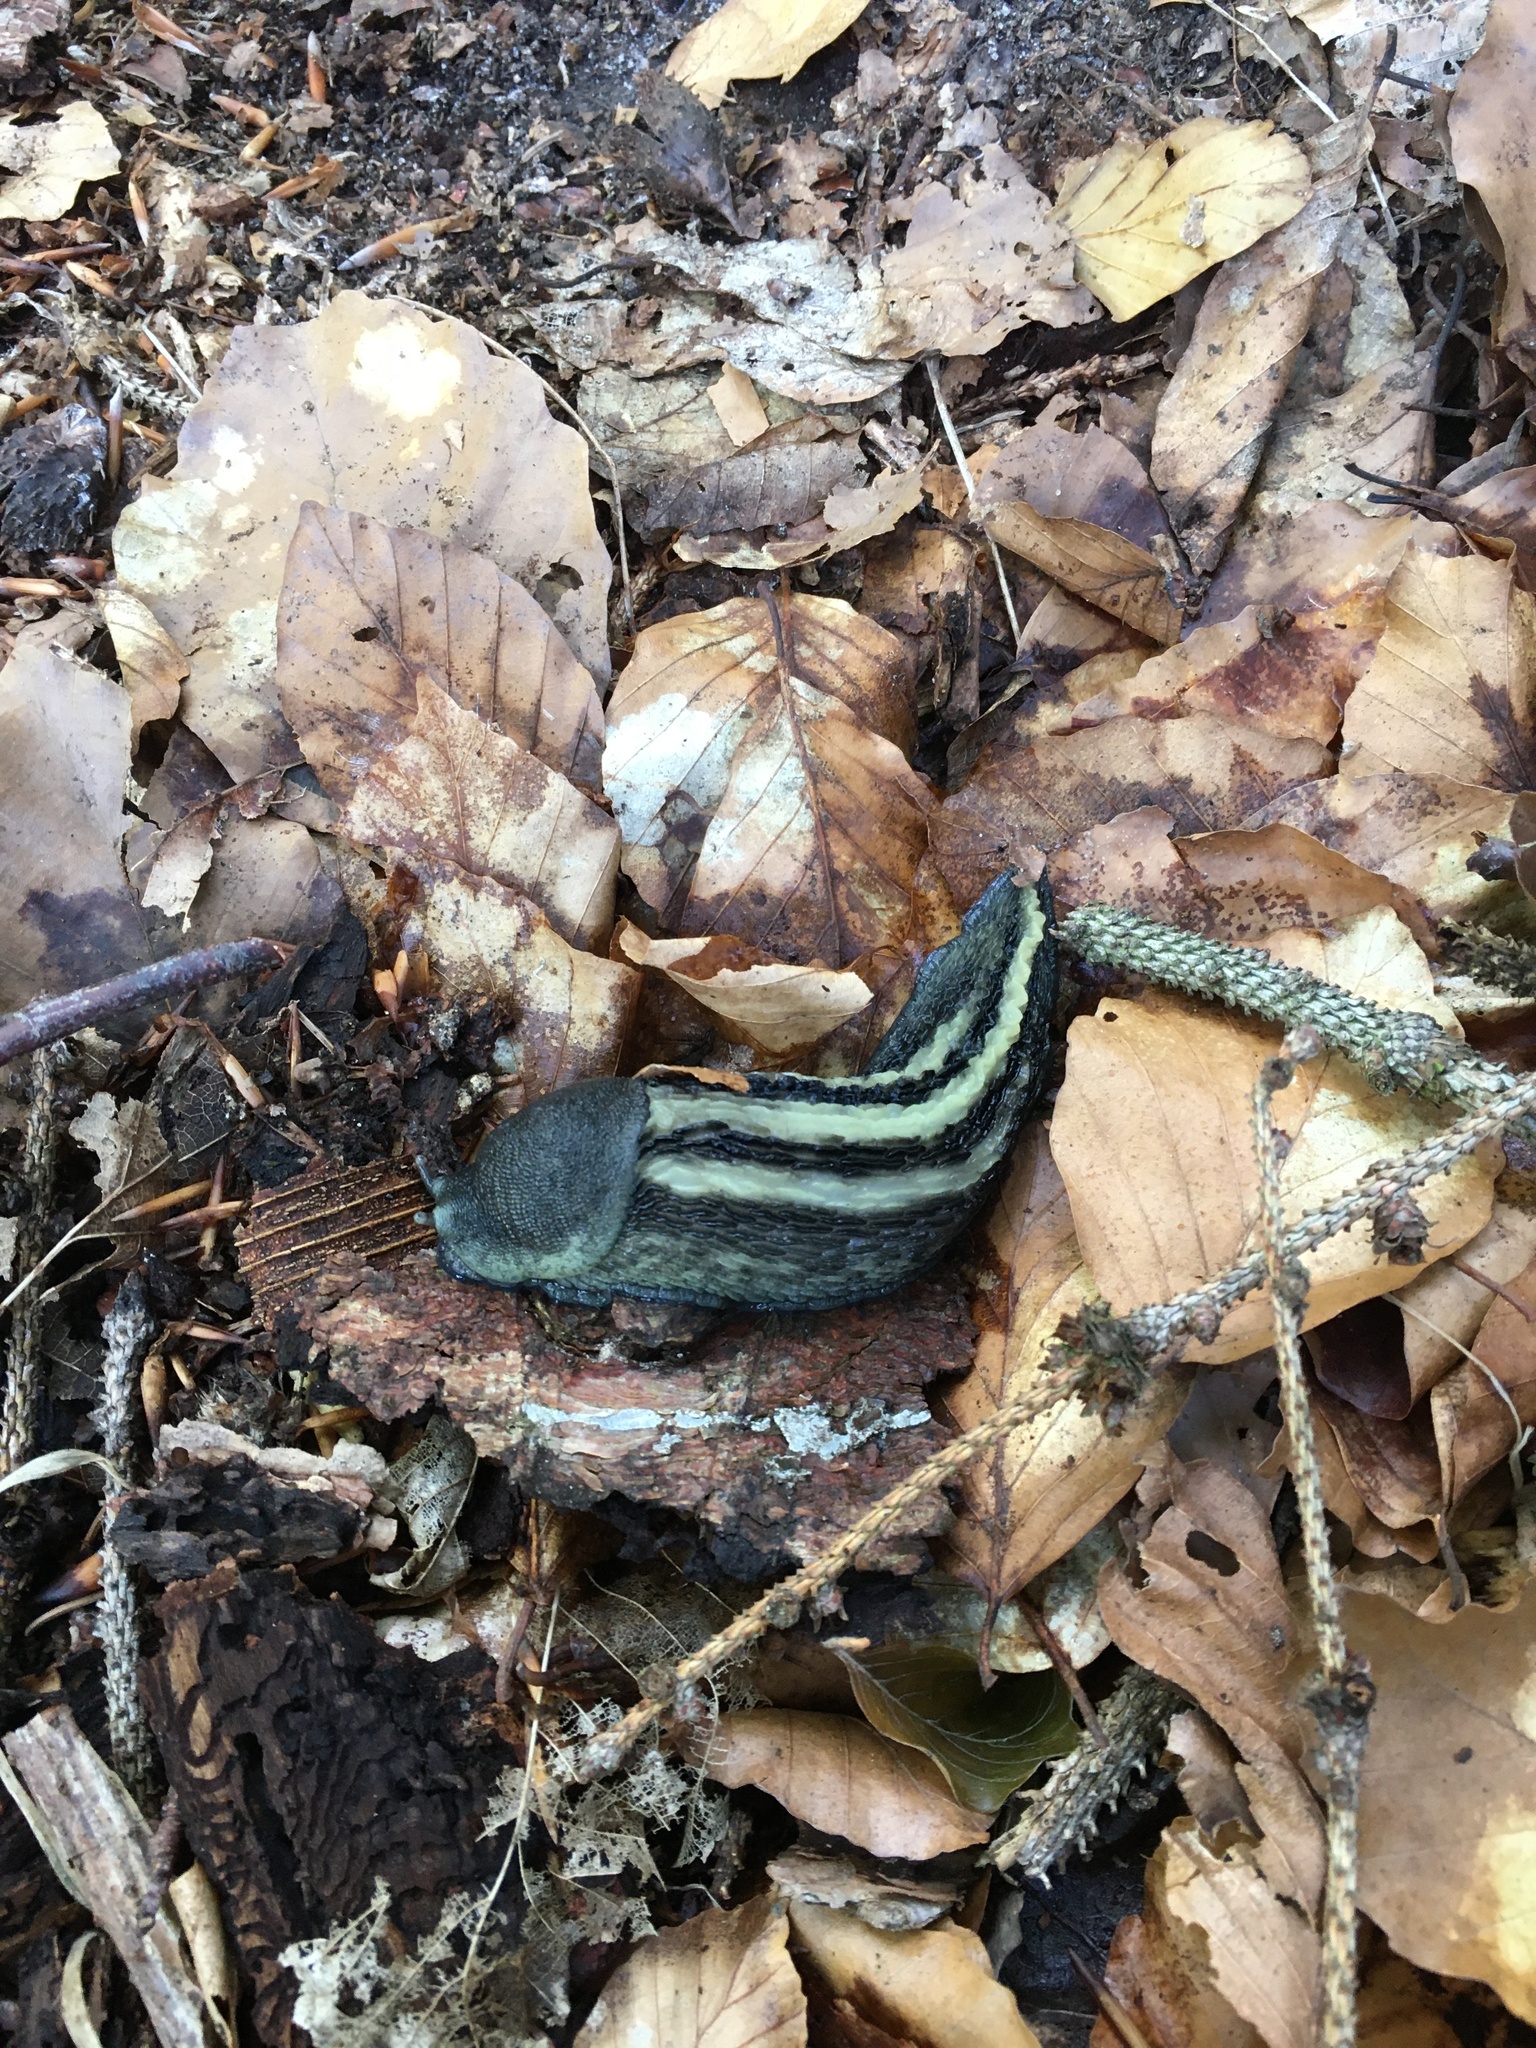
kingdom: Animalia
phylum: Mollusca
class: Gastropoda
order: Stylommatophora
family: Limacidae
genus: Limax
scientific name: Limax cinereoniger
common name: Ash-black slug
